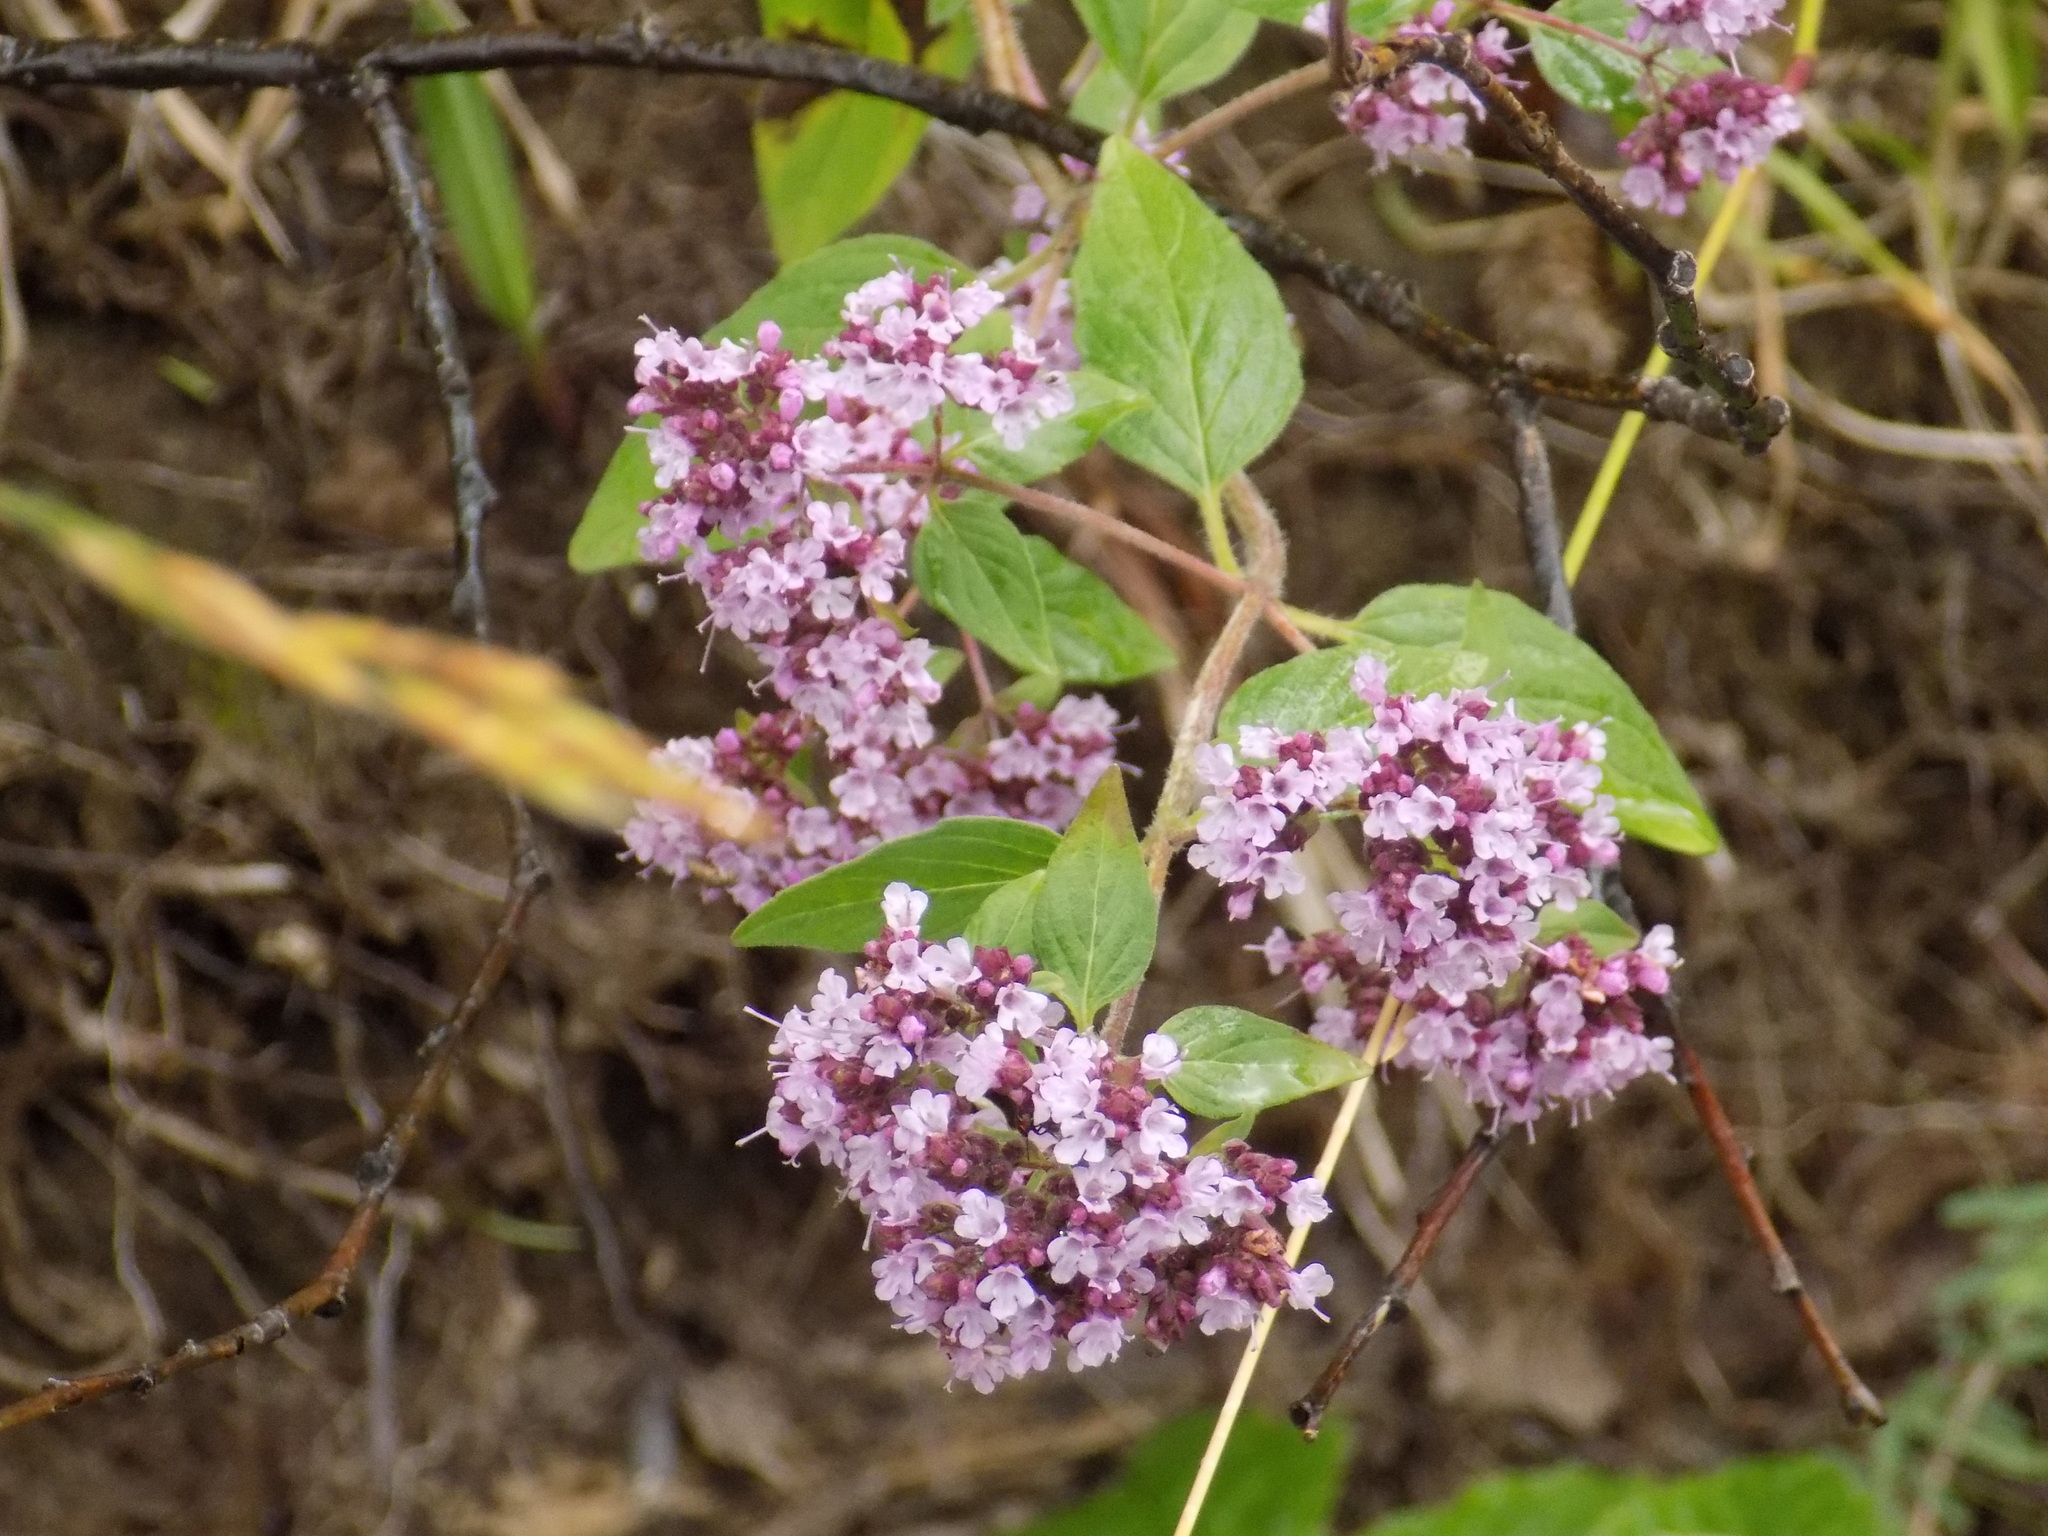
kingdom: Plantae
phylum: Tracheophyta
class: Magnoliopsida
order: Lamiales
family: Lamiaceae
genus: Origanum
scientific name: Origanum vulgare
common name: Wild marjoram
